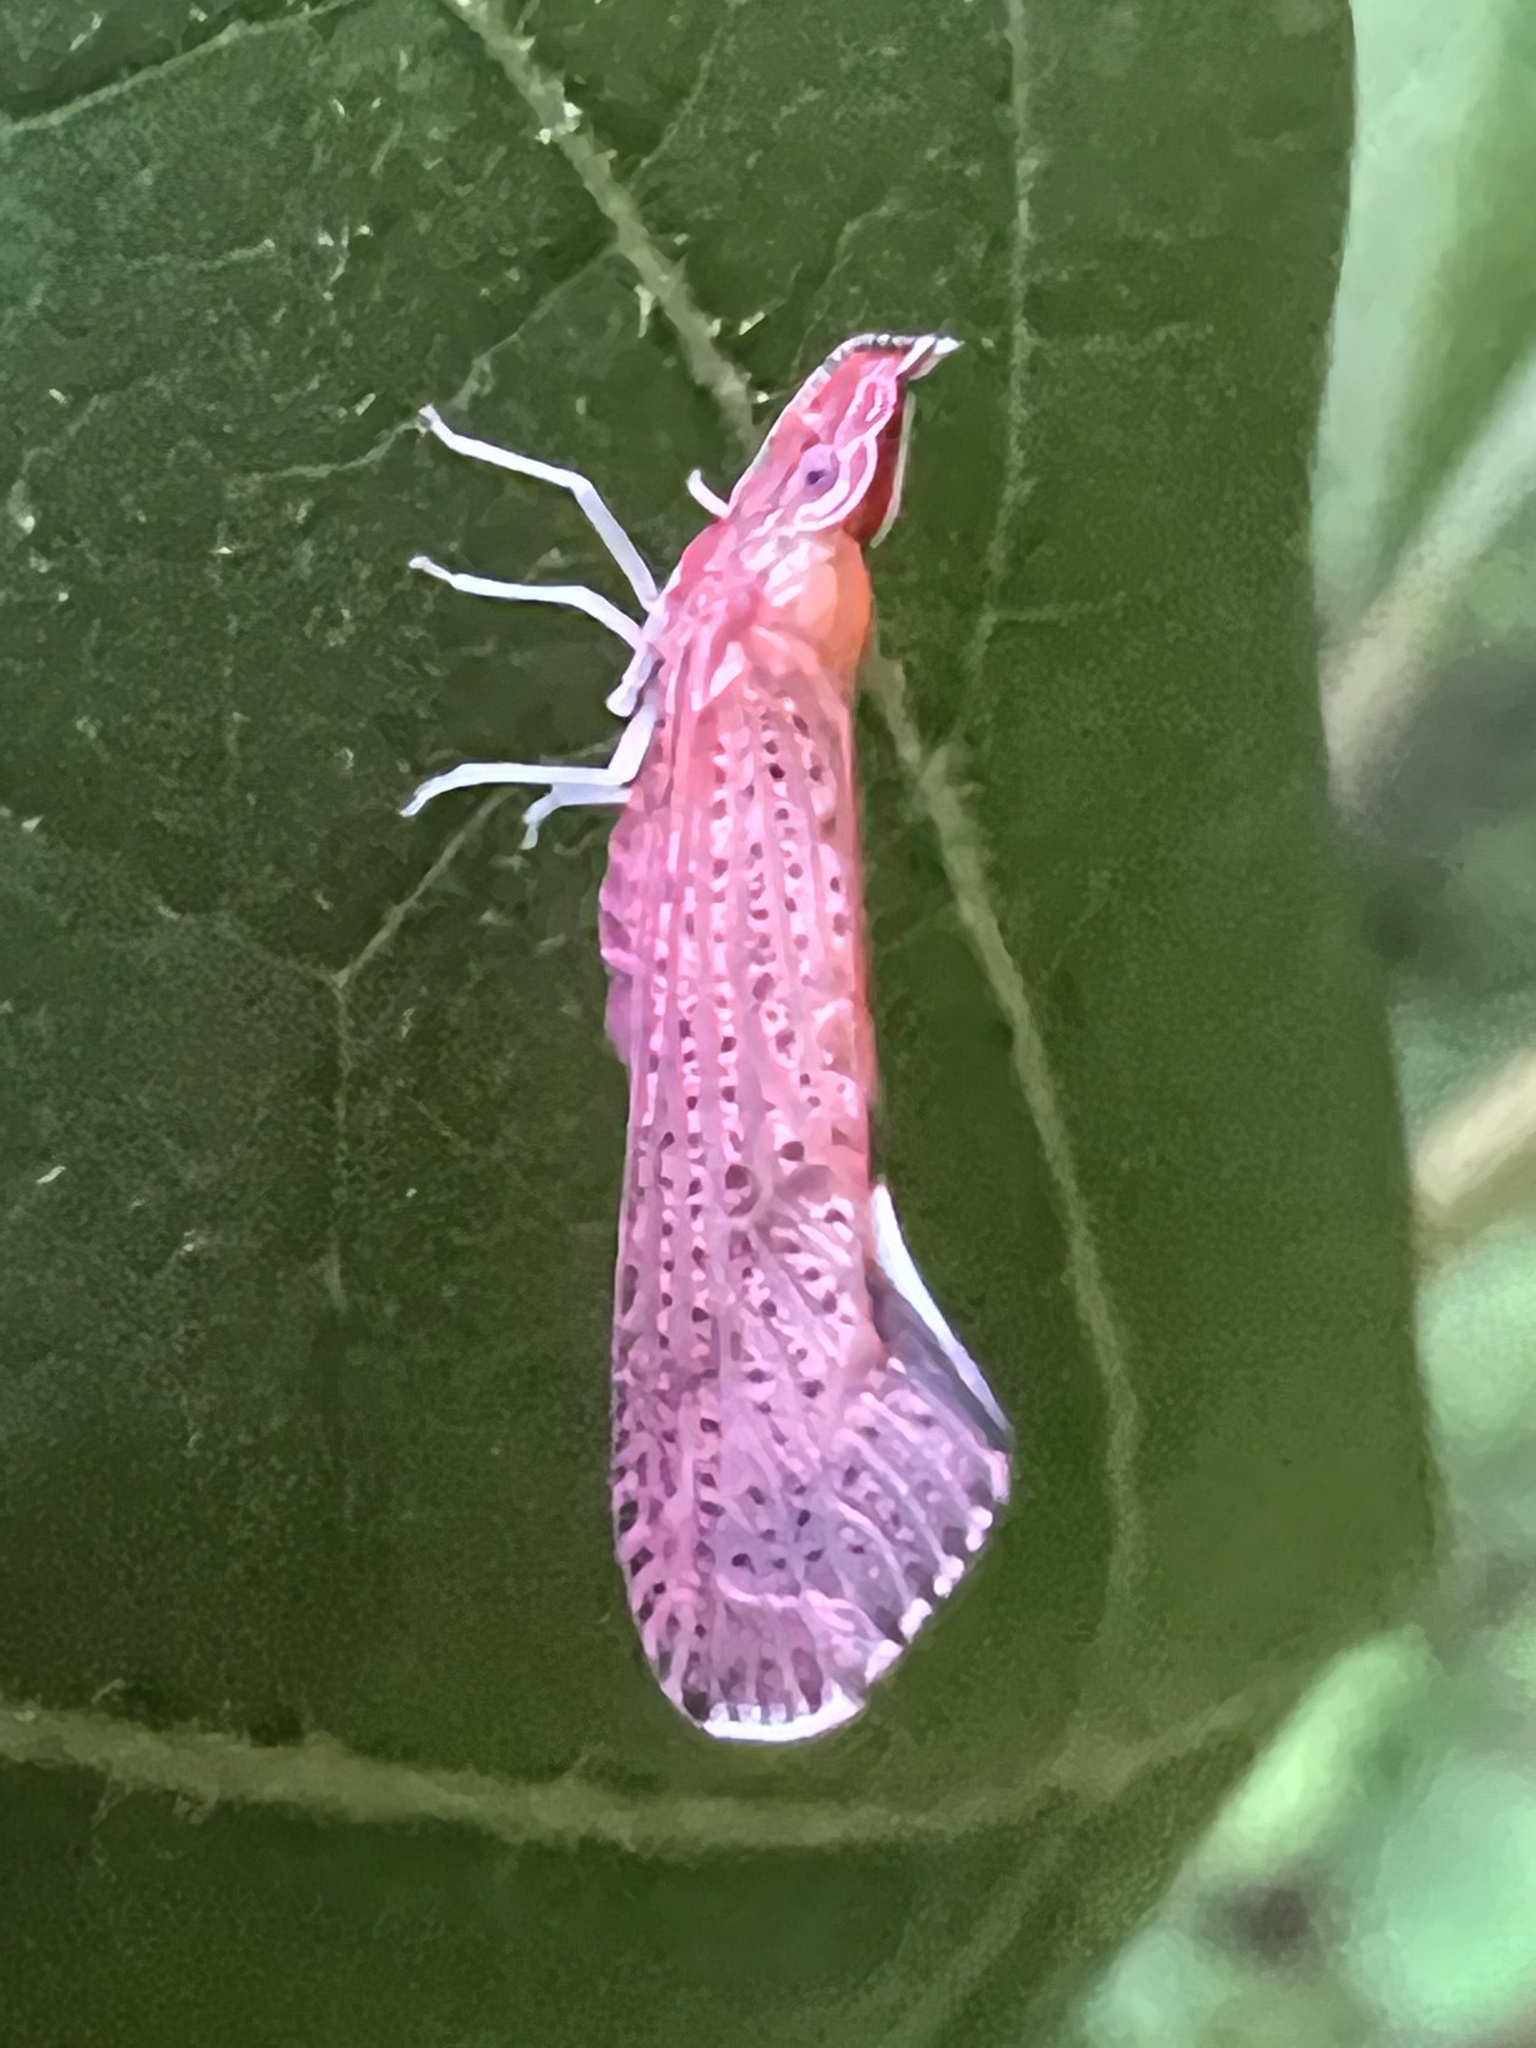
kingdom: Animalia
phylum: Arthropoda
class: Insecta
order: Hemiptera
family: Derbidae
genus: Apache
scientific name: Apache degeeri
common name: Red-fanned planthopper
